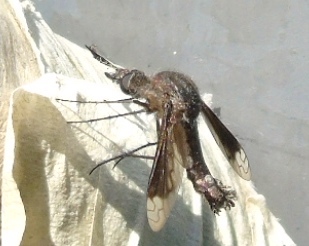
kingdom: Animalia
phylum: Arthropoda
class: Insecta
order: Diptera
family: Bombyliidae
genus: Lepidophora
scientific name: Lepidophora vetusta
